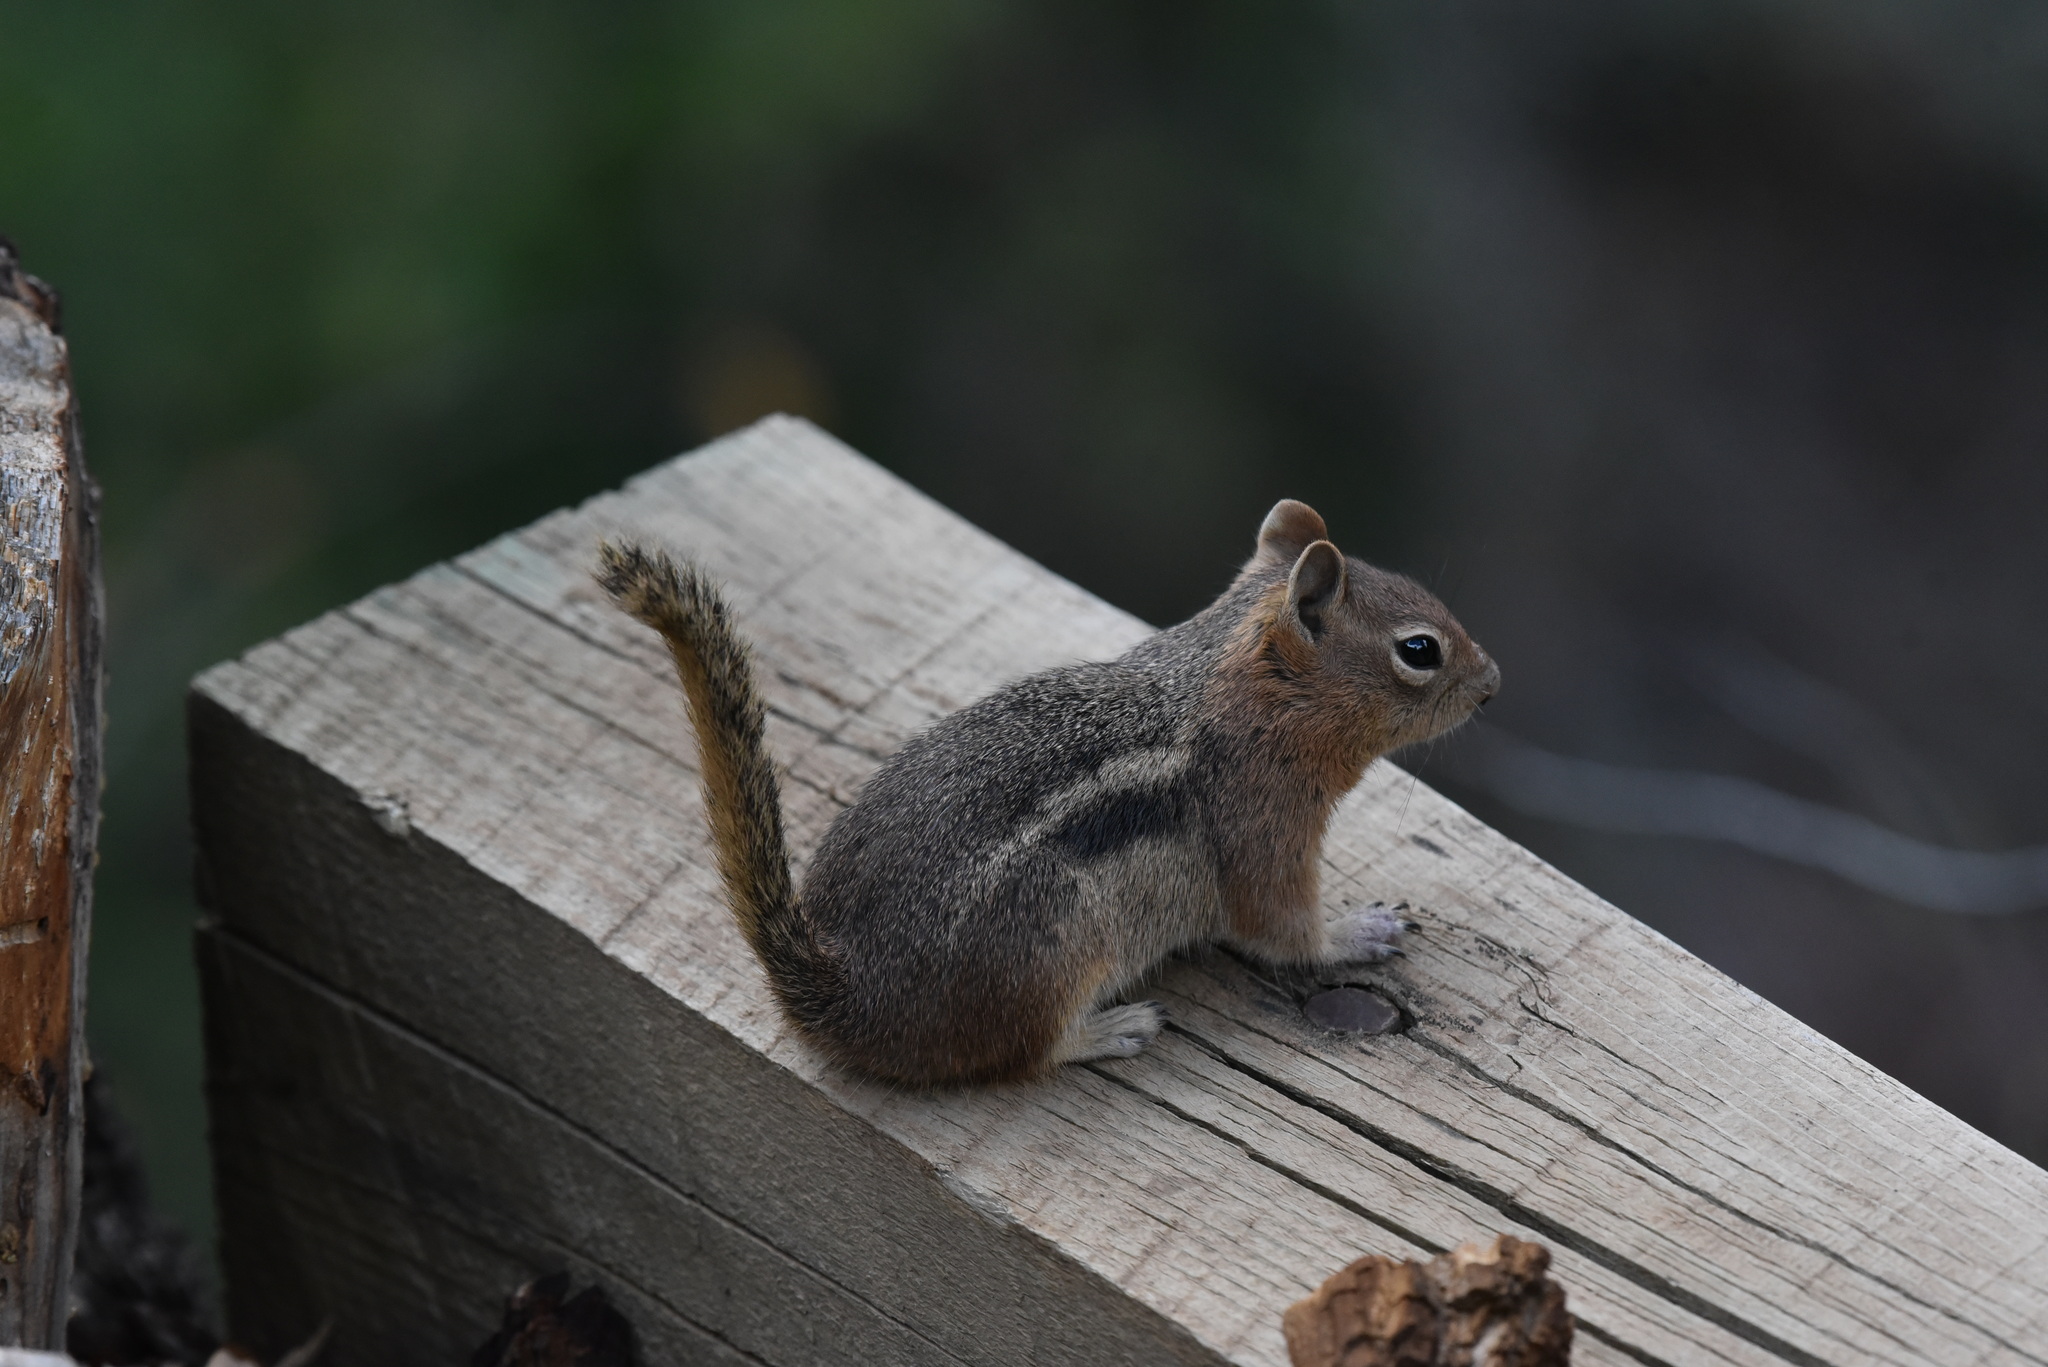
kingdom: Animalia
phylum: Chordata
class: Mammalia
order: Rodentia
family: Sciuridae
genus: Callospermophilus
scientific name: Callospermophilus lateralis
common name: Golden-mantled ground squirrel
